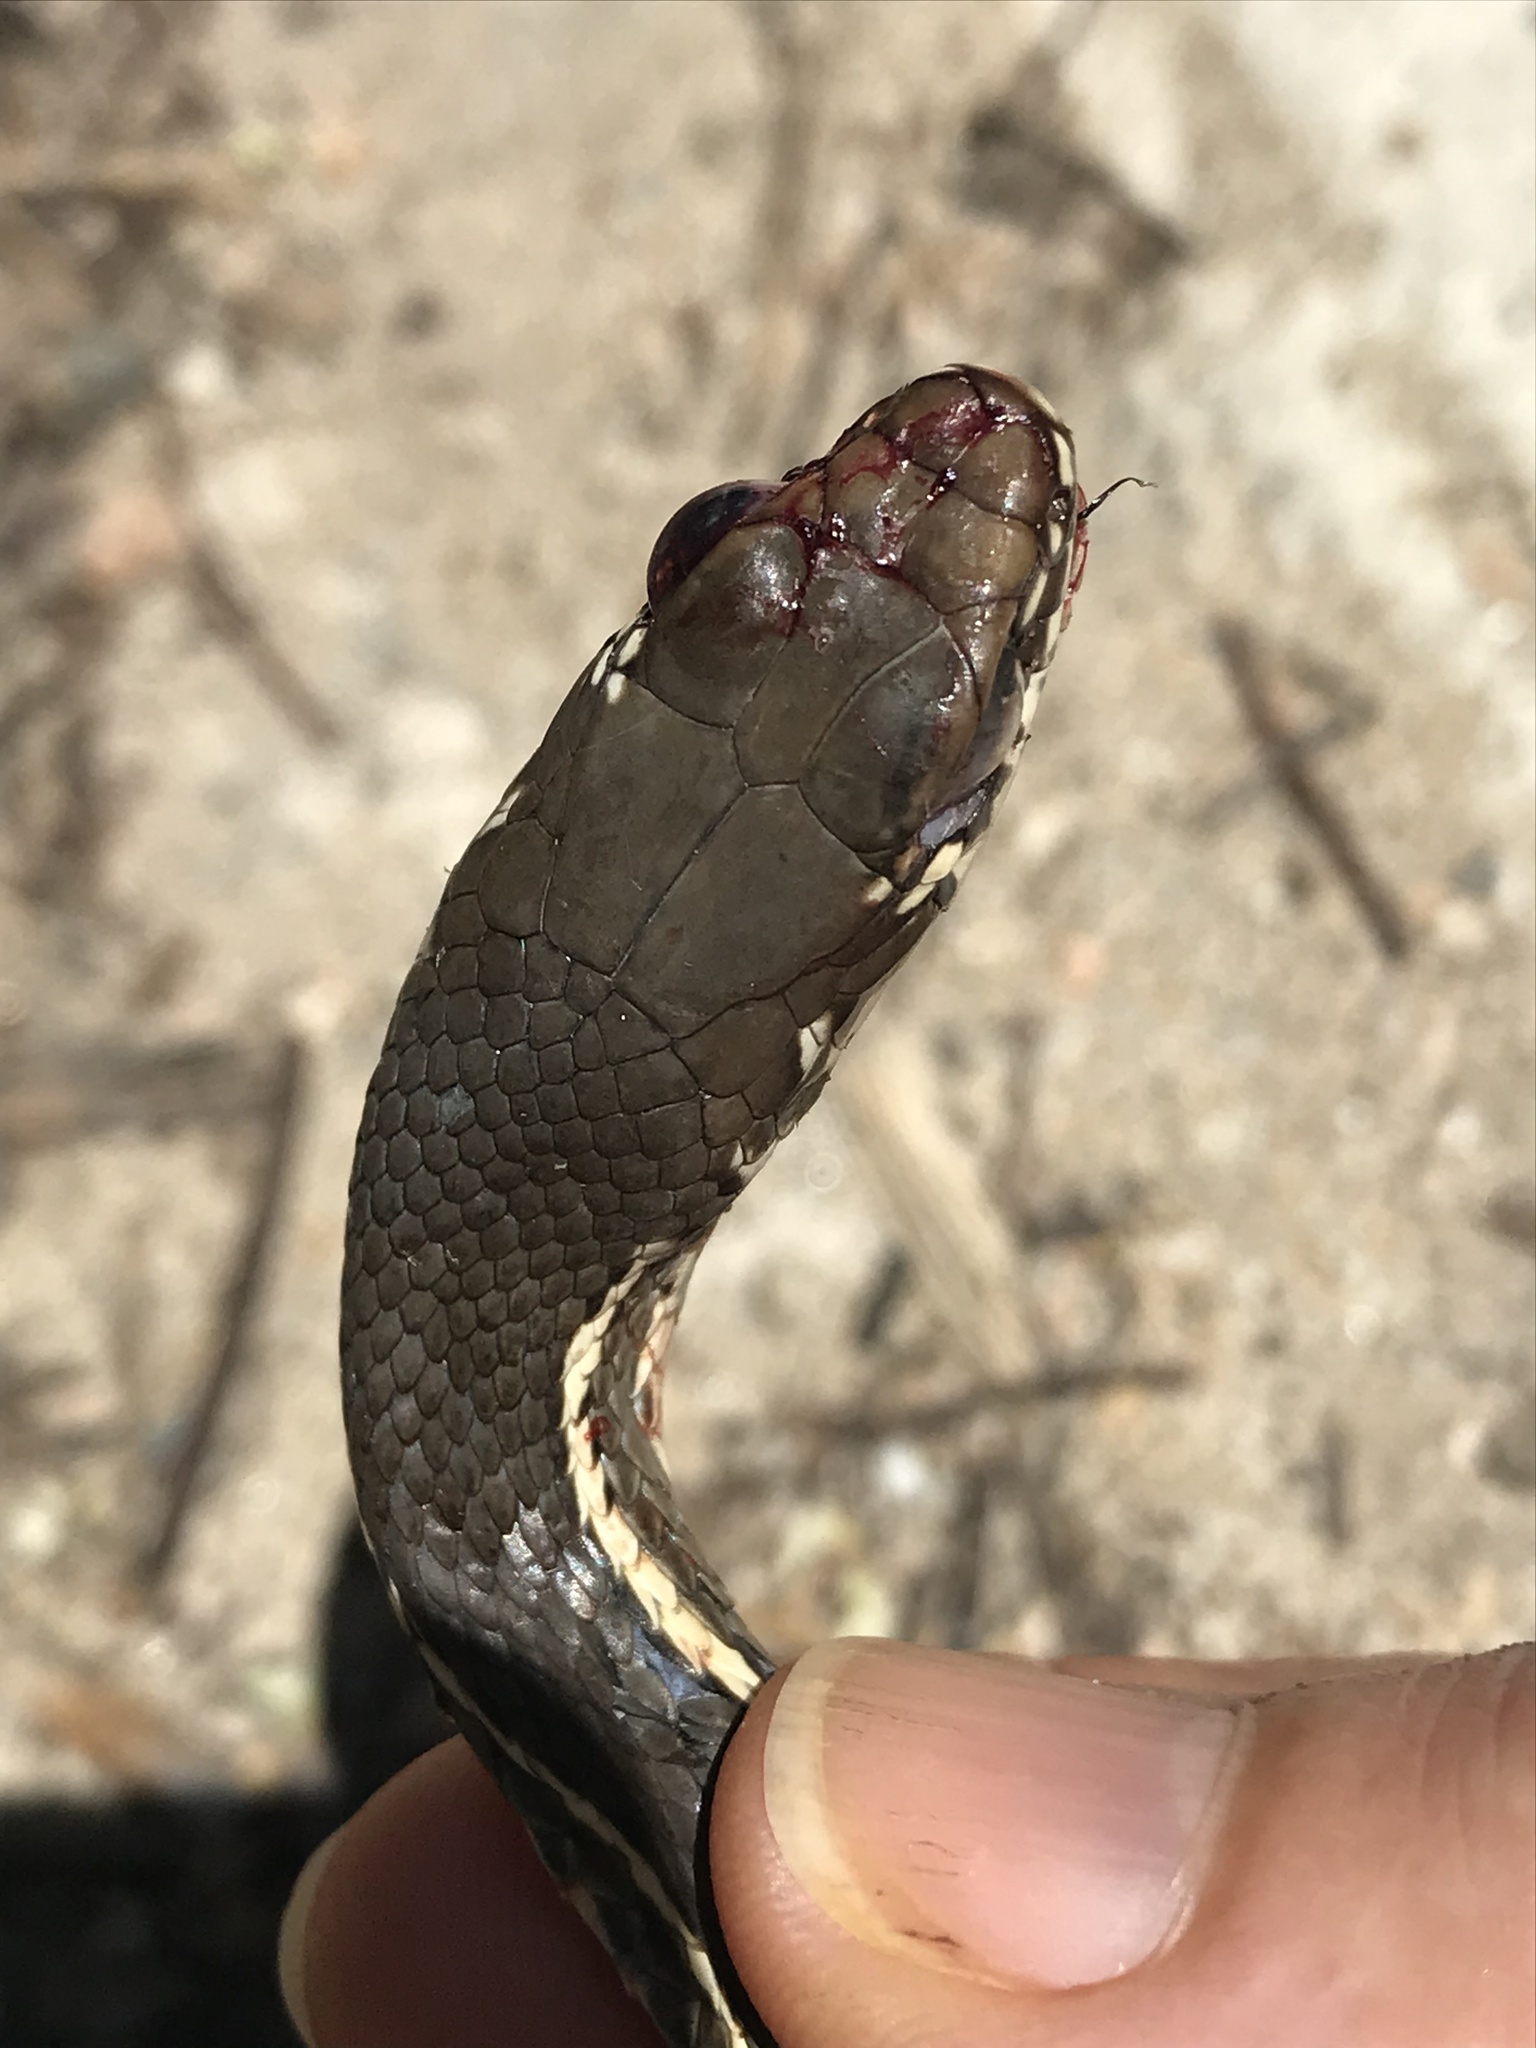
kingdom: Animalia
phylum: Chordata
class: Squamata
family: Colubridae
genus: Masticophis
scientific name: Masticophis lateralis
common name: Striped racer
